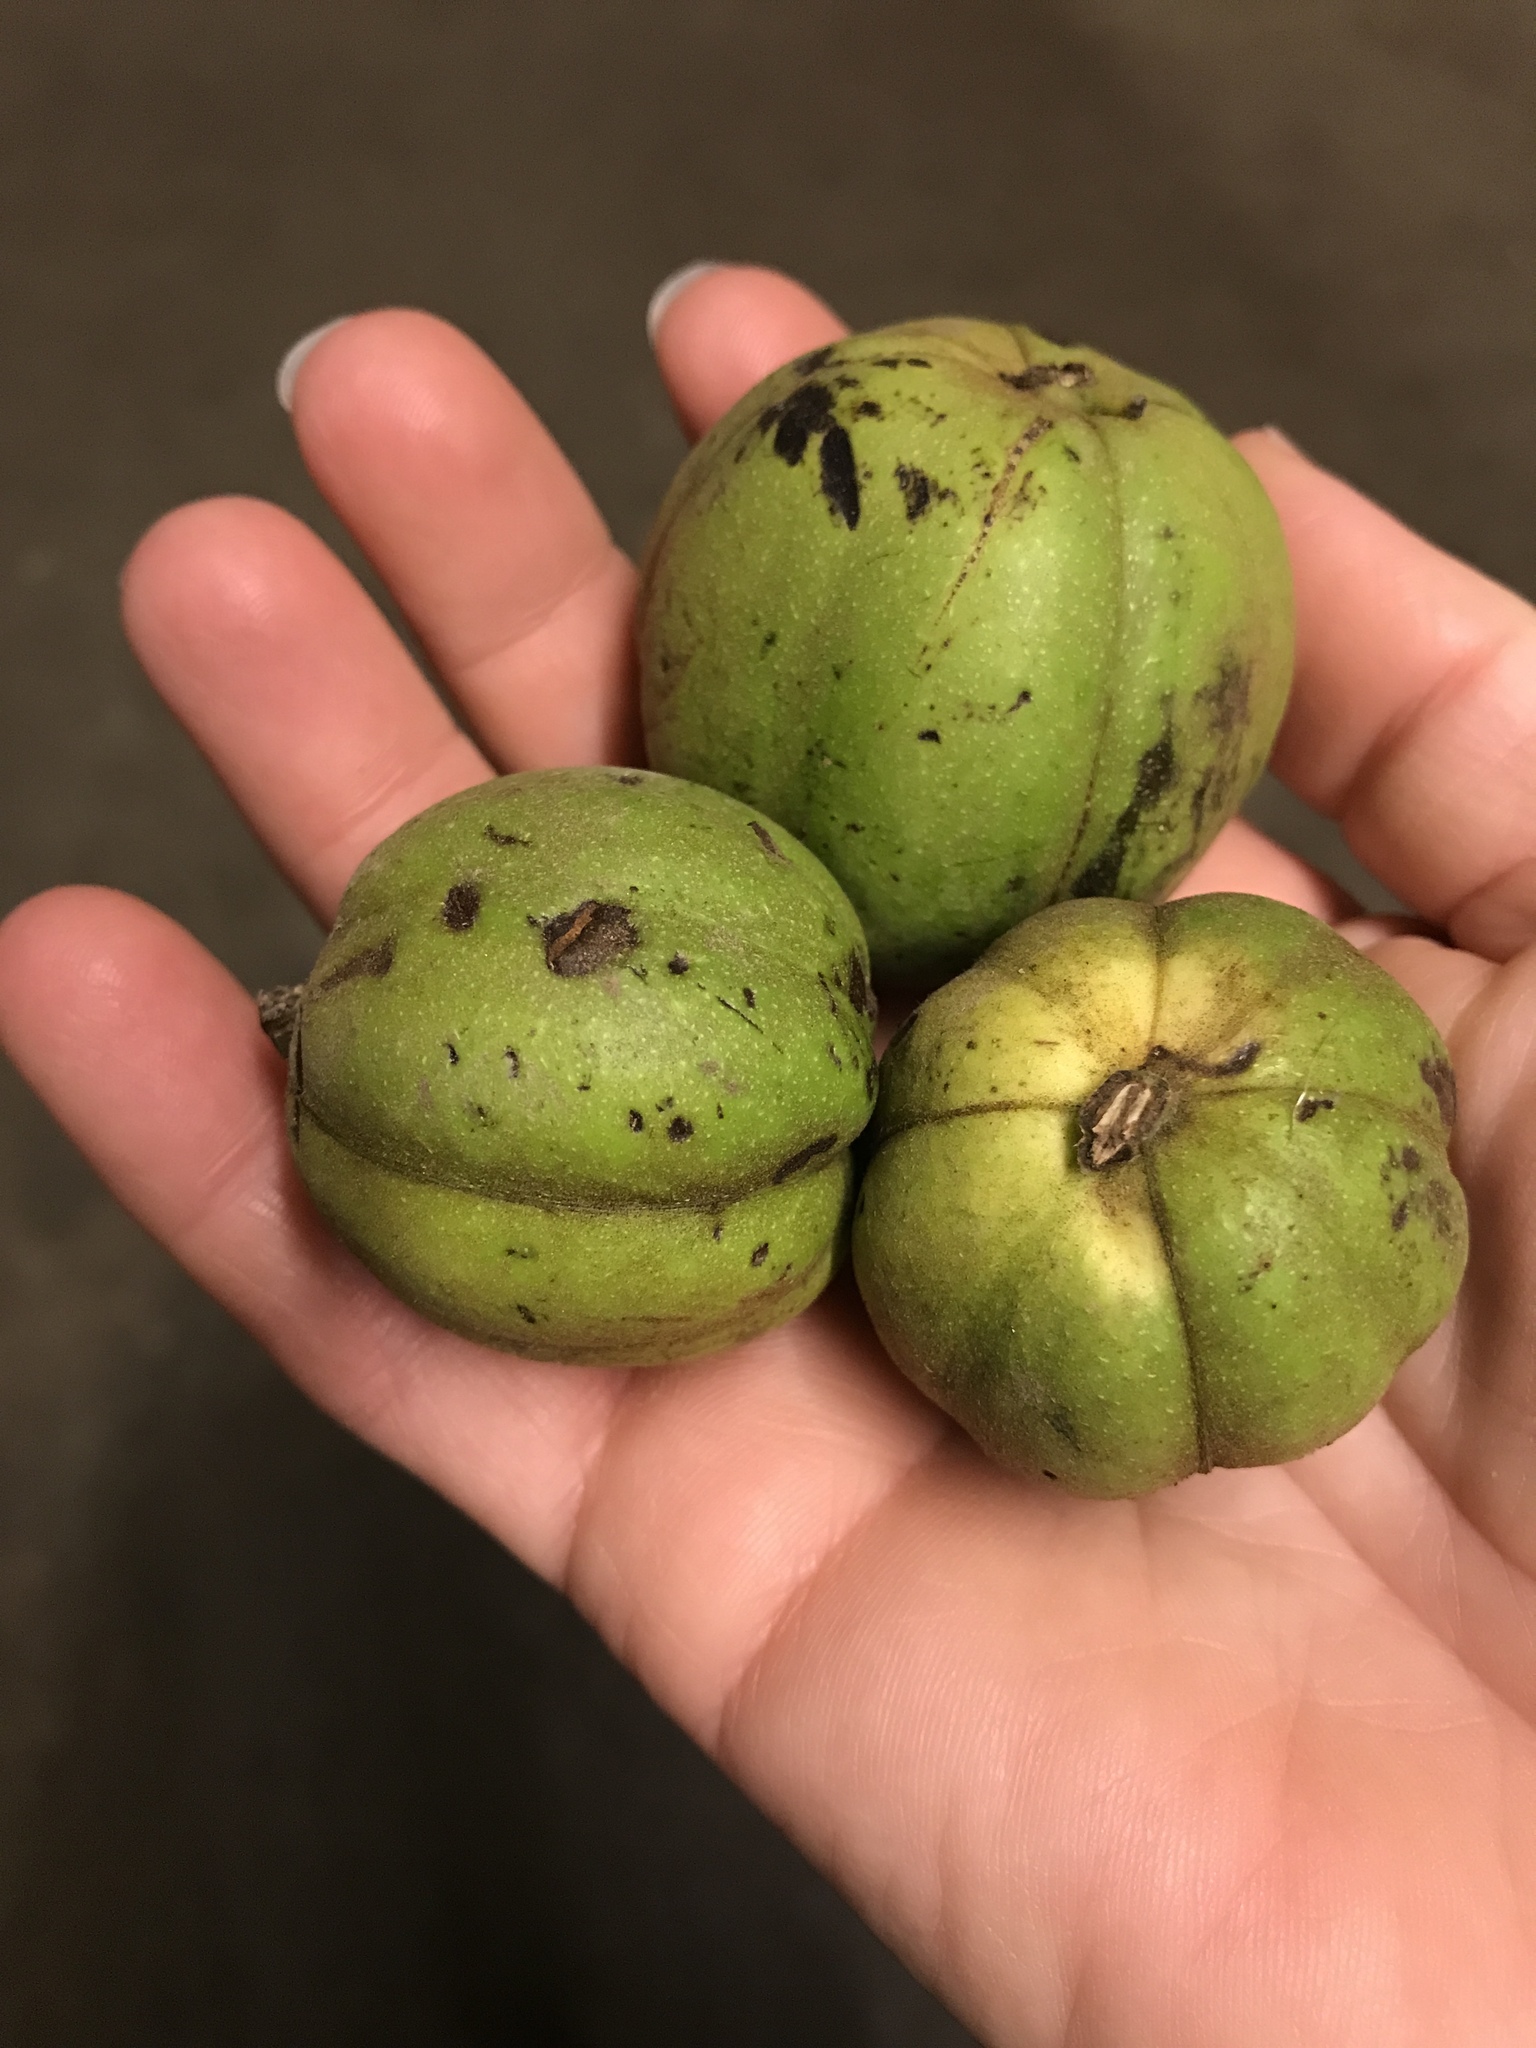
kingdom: Plantae
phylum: Tracheophyta
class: Magnoliopsida
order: Fagales
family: Juglandaceae
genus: Carya
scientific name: Carya ovata
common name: Shagbark hickory
